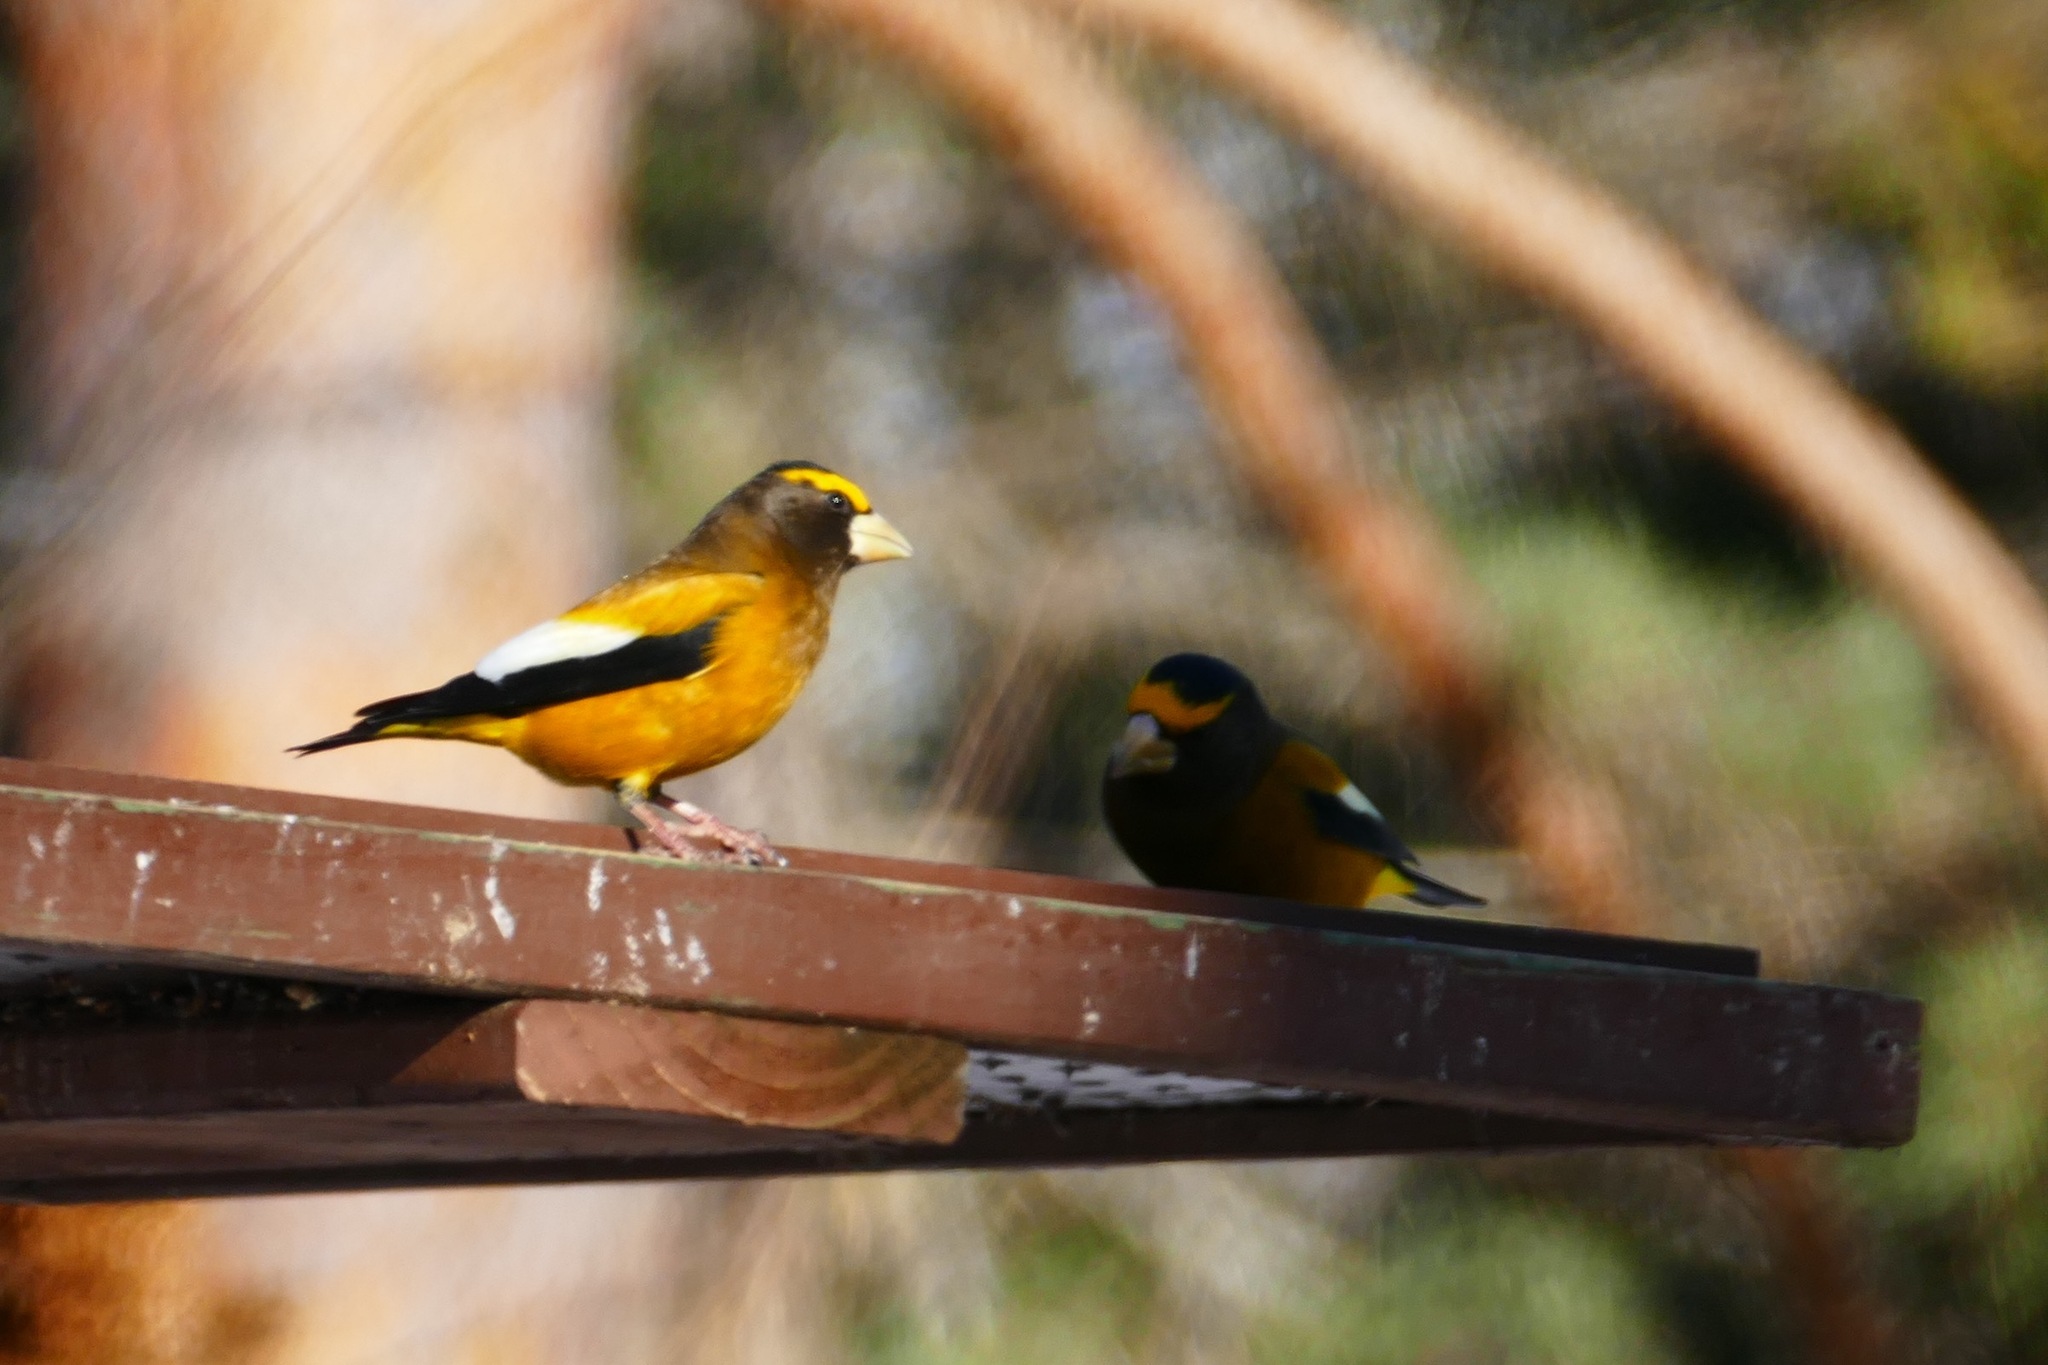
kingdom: Animalia
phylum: Chordata
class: Aves
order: Passeriformes
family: Fringillidae
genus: Hesperiphona
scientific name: Hesperiphona vespertina
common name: Evening grosbeak
